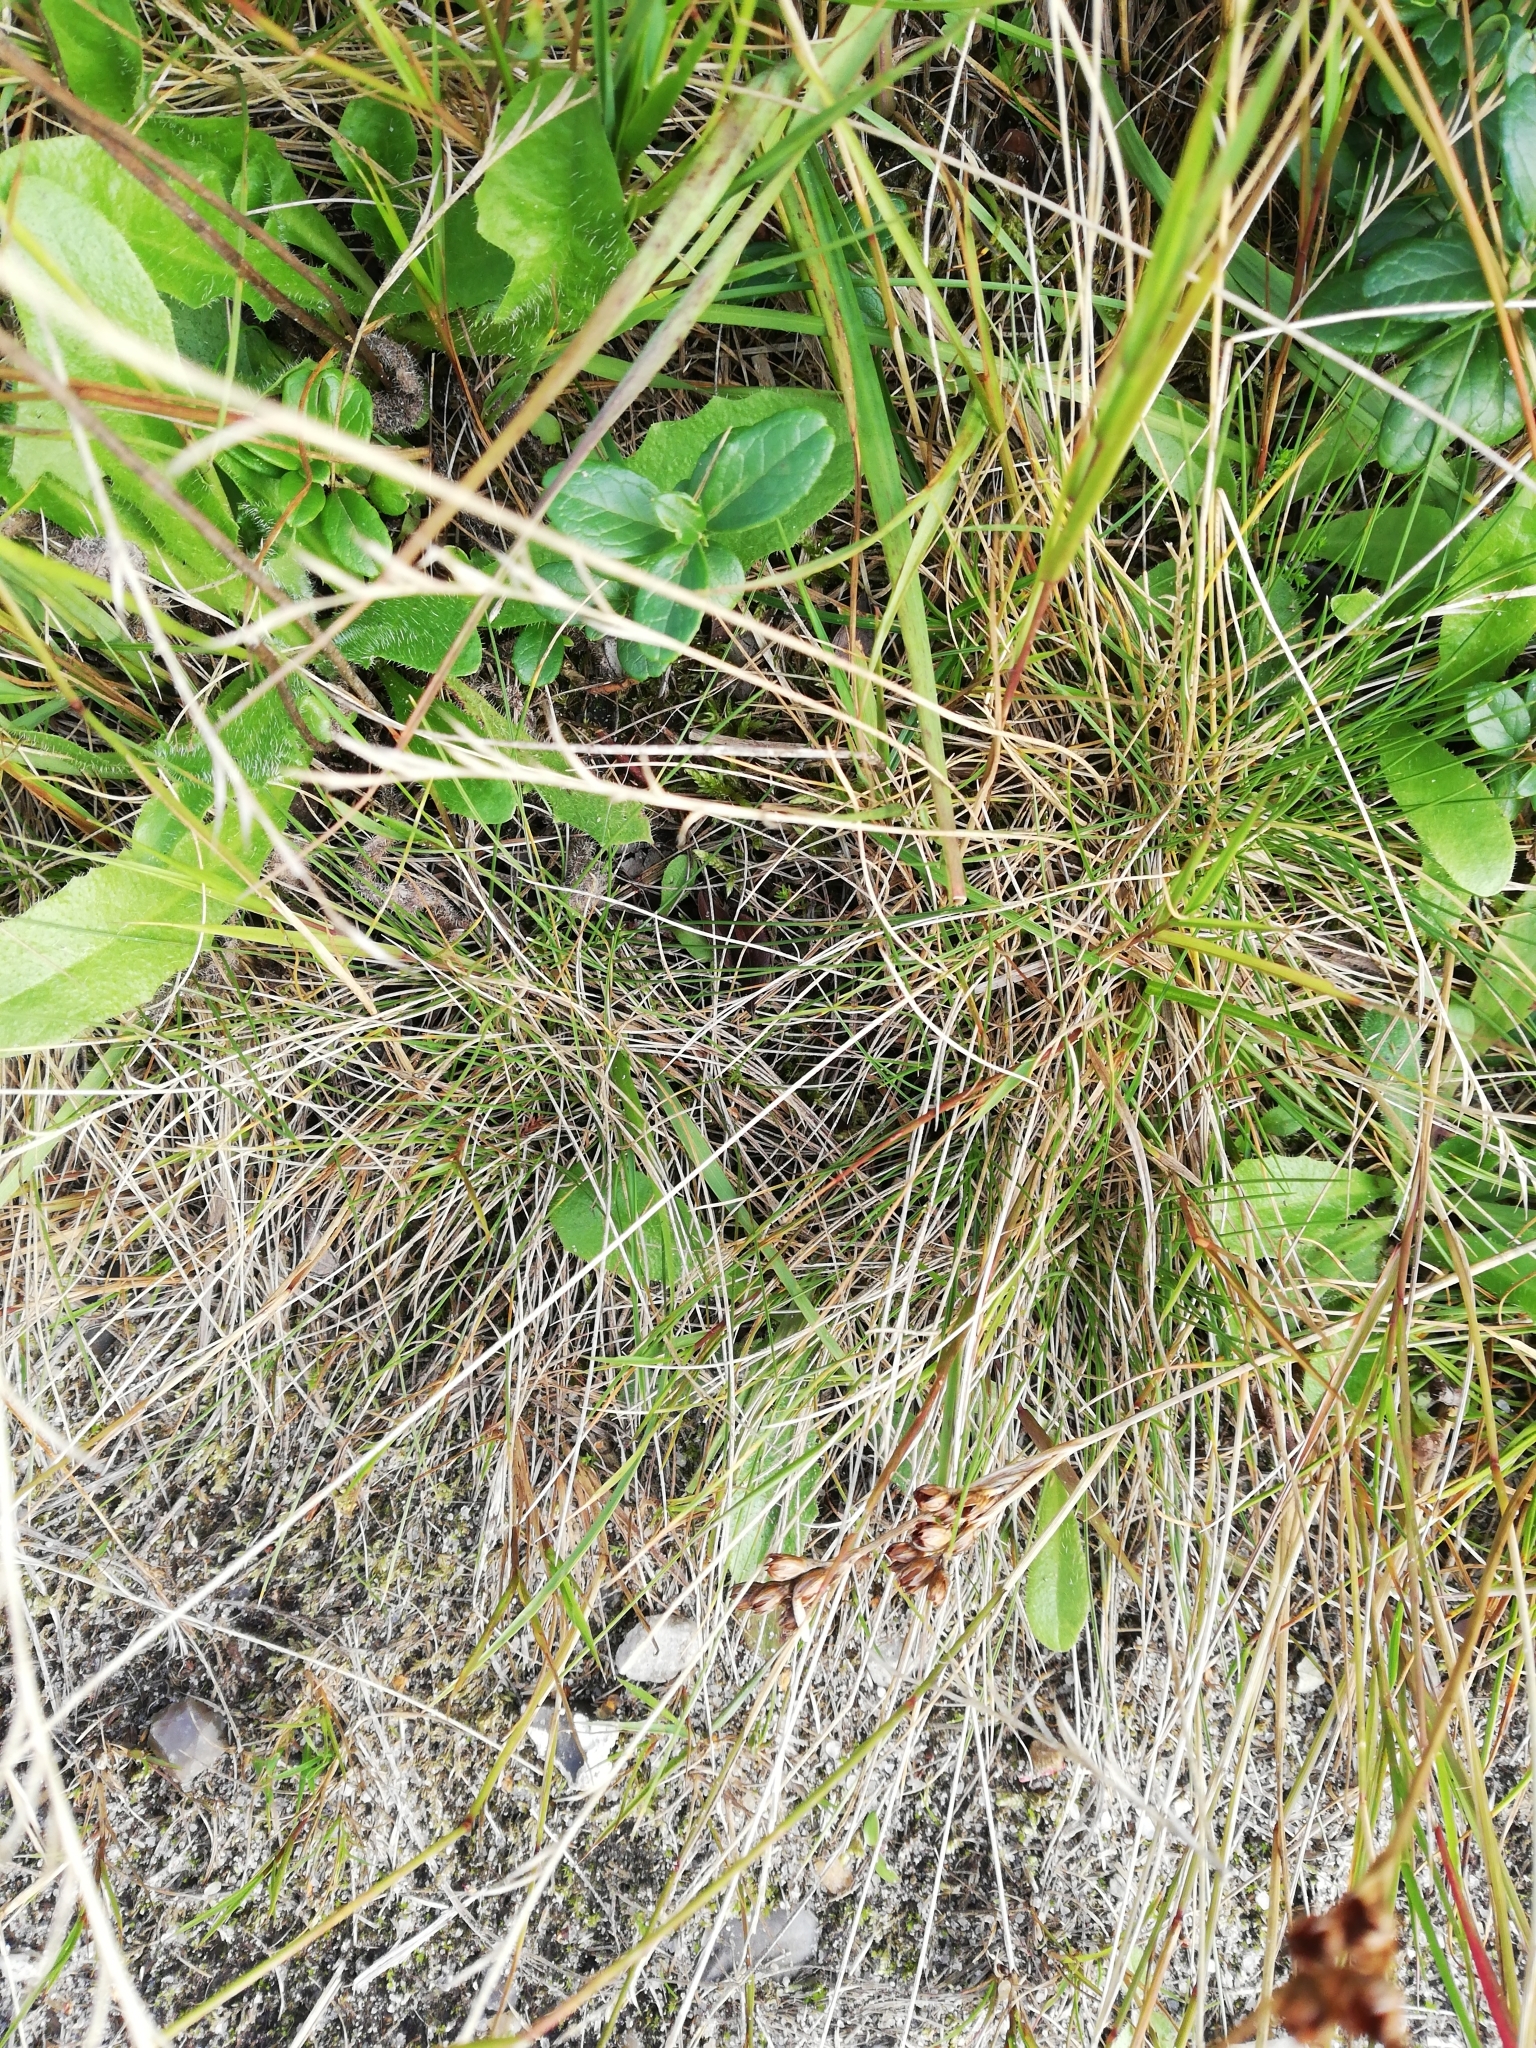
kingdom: Plantae
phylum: Tracheophyta
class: Liliopsida
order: Poales
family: Poaceae
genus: Nardus
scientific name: Nardus stricta
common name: Mat-grass
